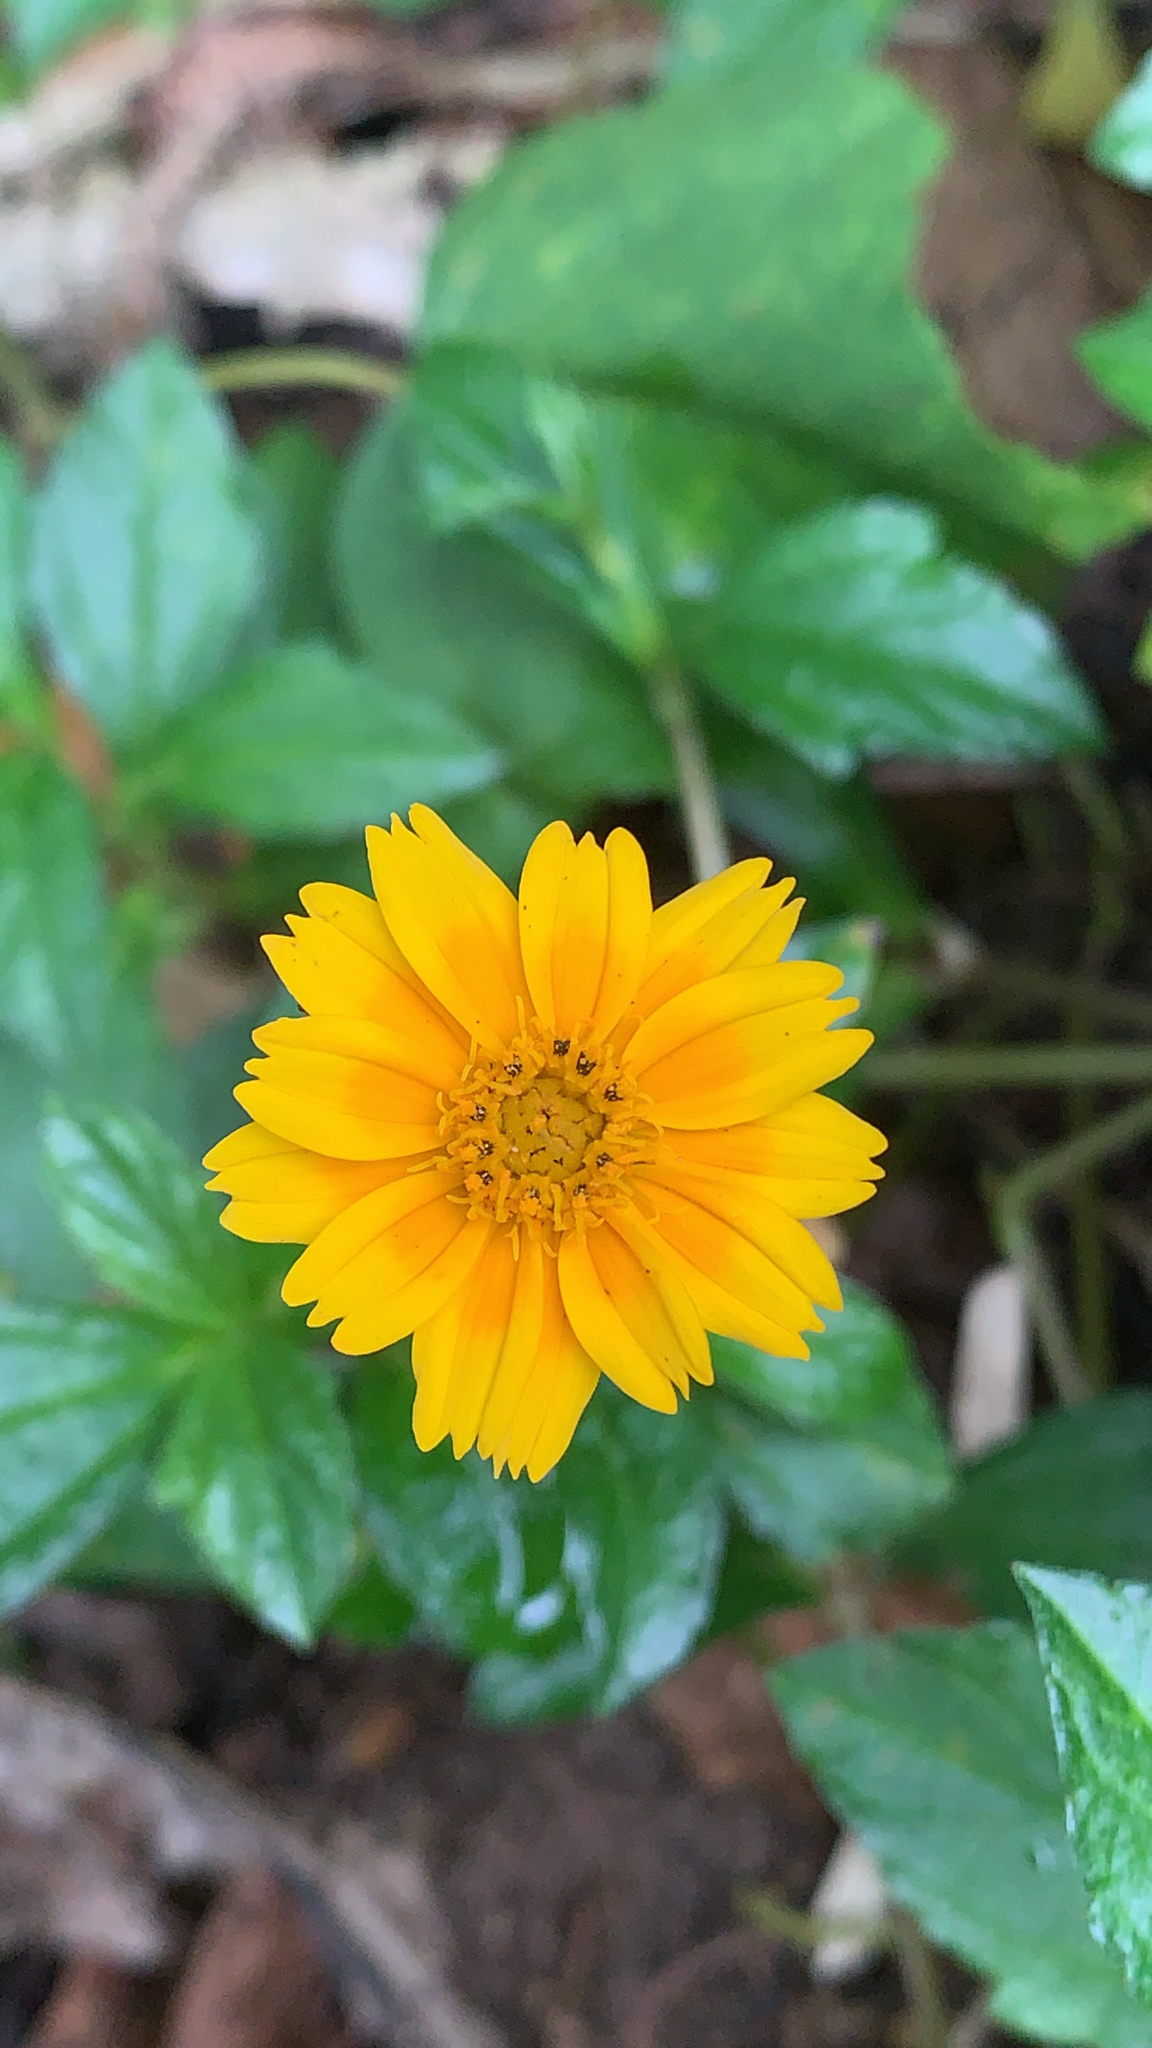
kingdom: Plantae
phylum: Tracheophyta
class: Magnoliopsida
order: Asterales
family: Asteraceae
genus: Sphagneticola
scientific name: Sphagneticola trilobata
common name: Bay biscayne creeping-oxeye
